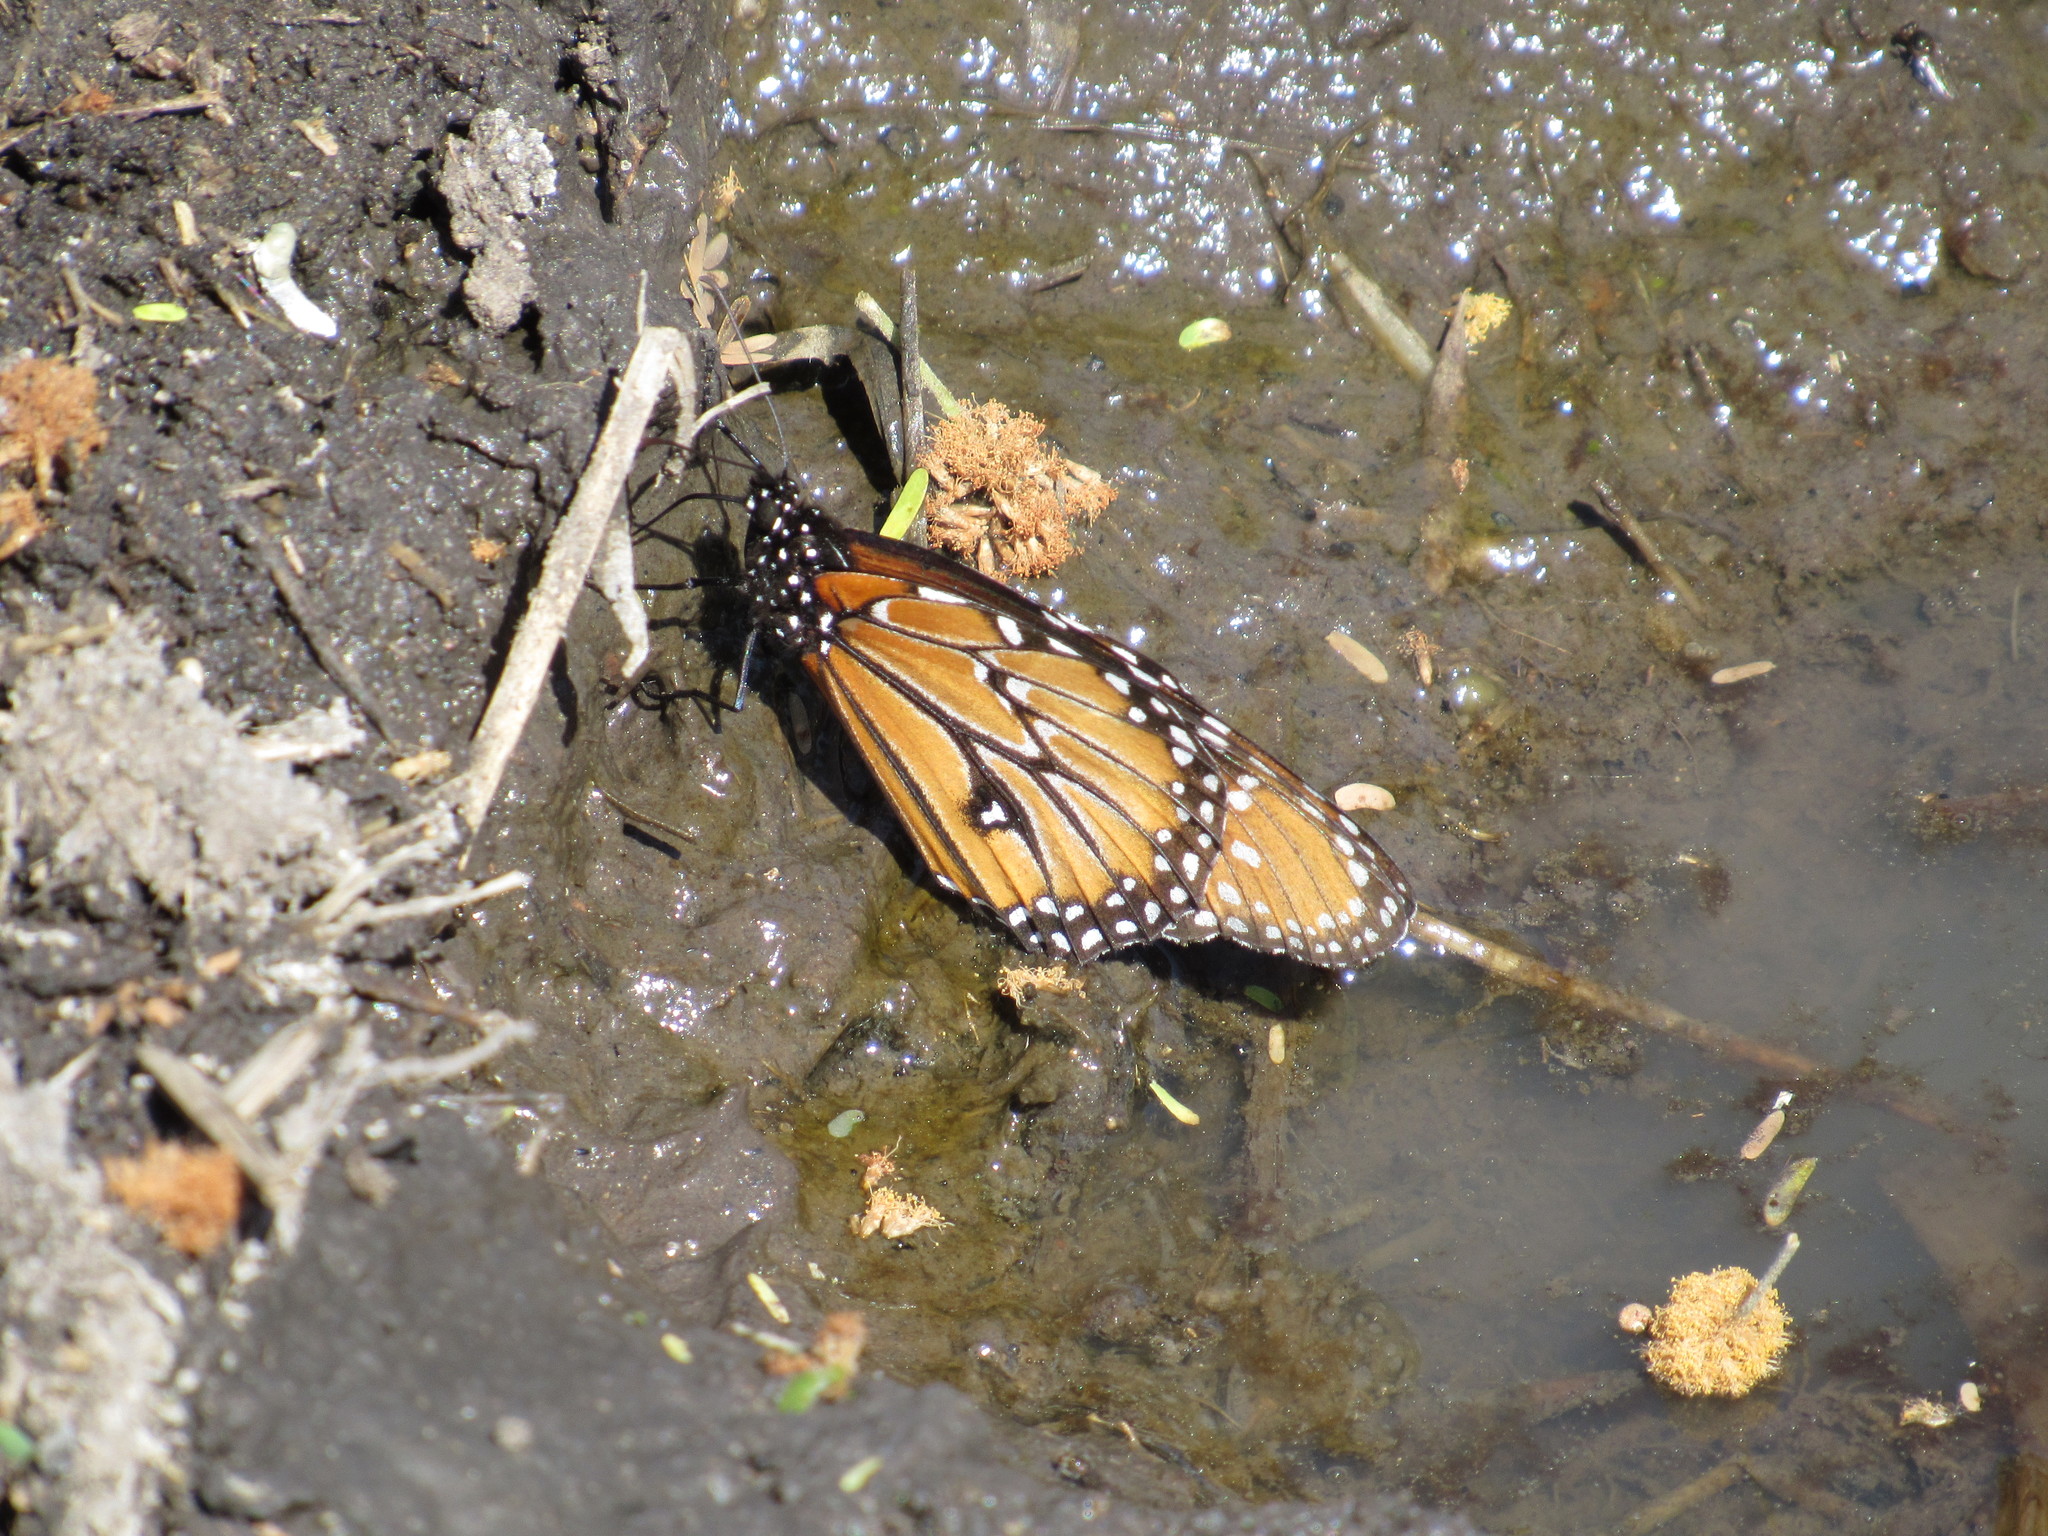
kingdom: Animalia
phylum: Arthropoda
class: Insecta
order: Lepidoptera
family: Nymphalidae
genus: Danaus
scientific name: Danaus gilippus
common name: Queen
